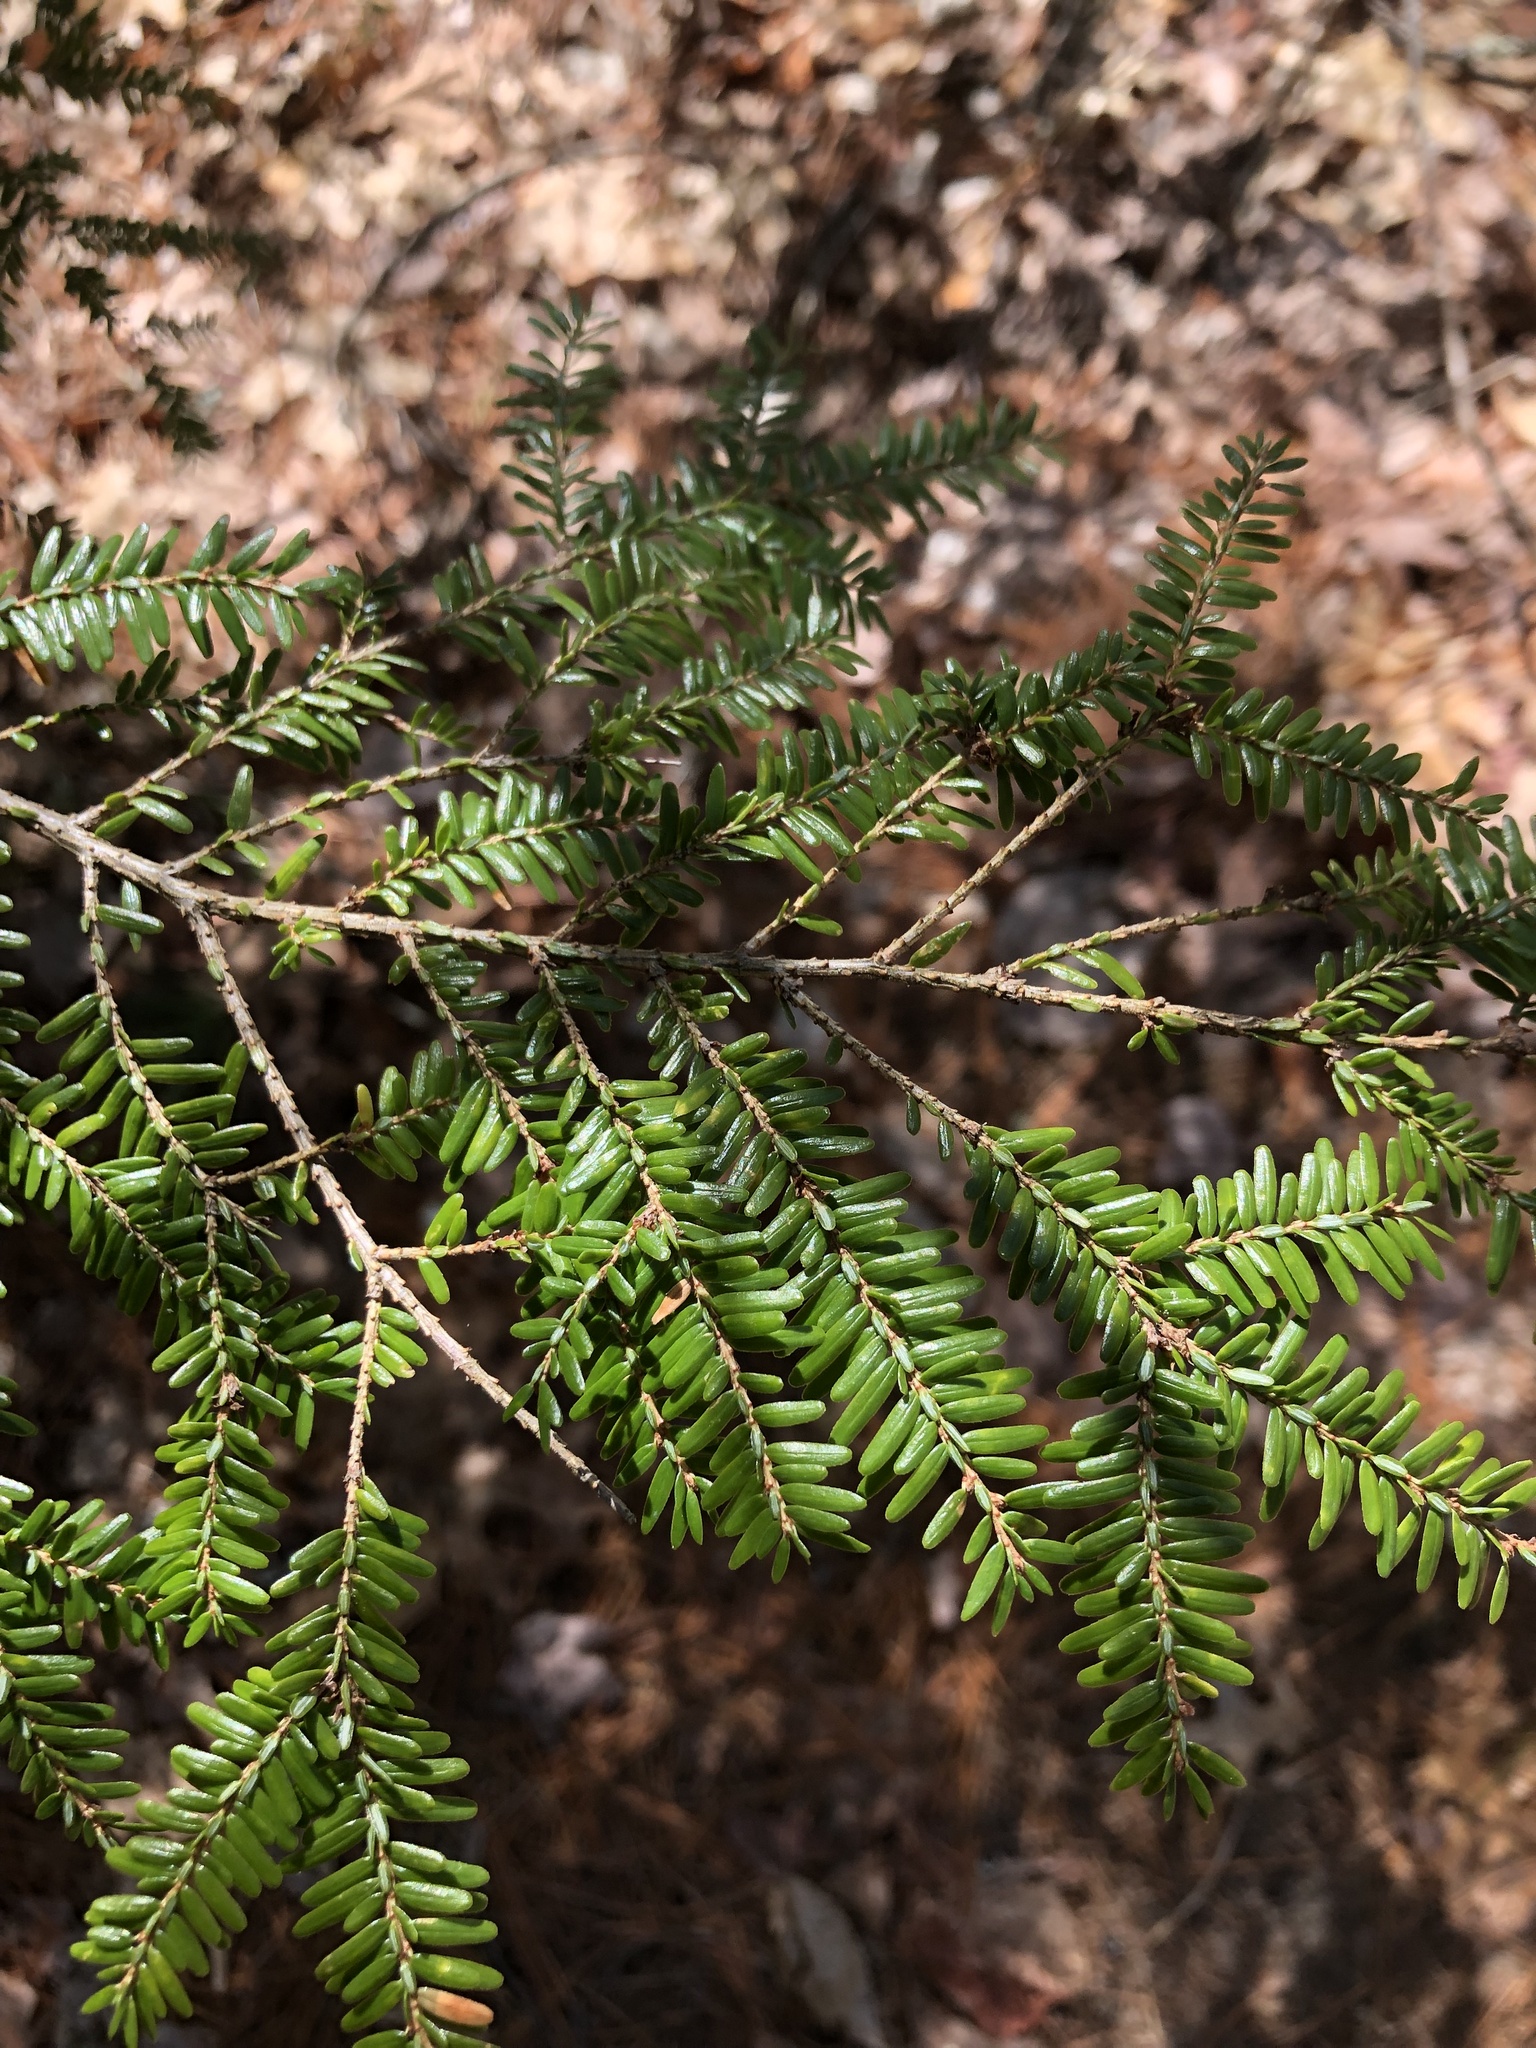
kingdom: Plantae
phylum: Tracheophyta
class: Pinopsida
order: Pinales
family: Pinaceae
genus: Tsuga
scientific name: Tsuga canadensis
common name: Eastern hemlock
